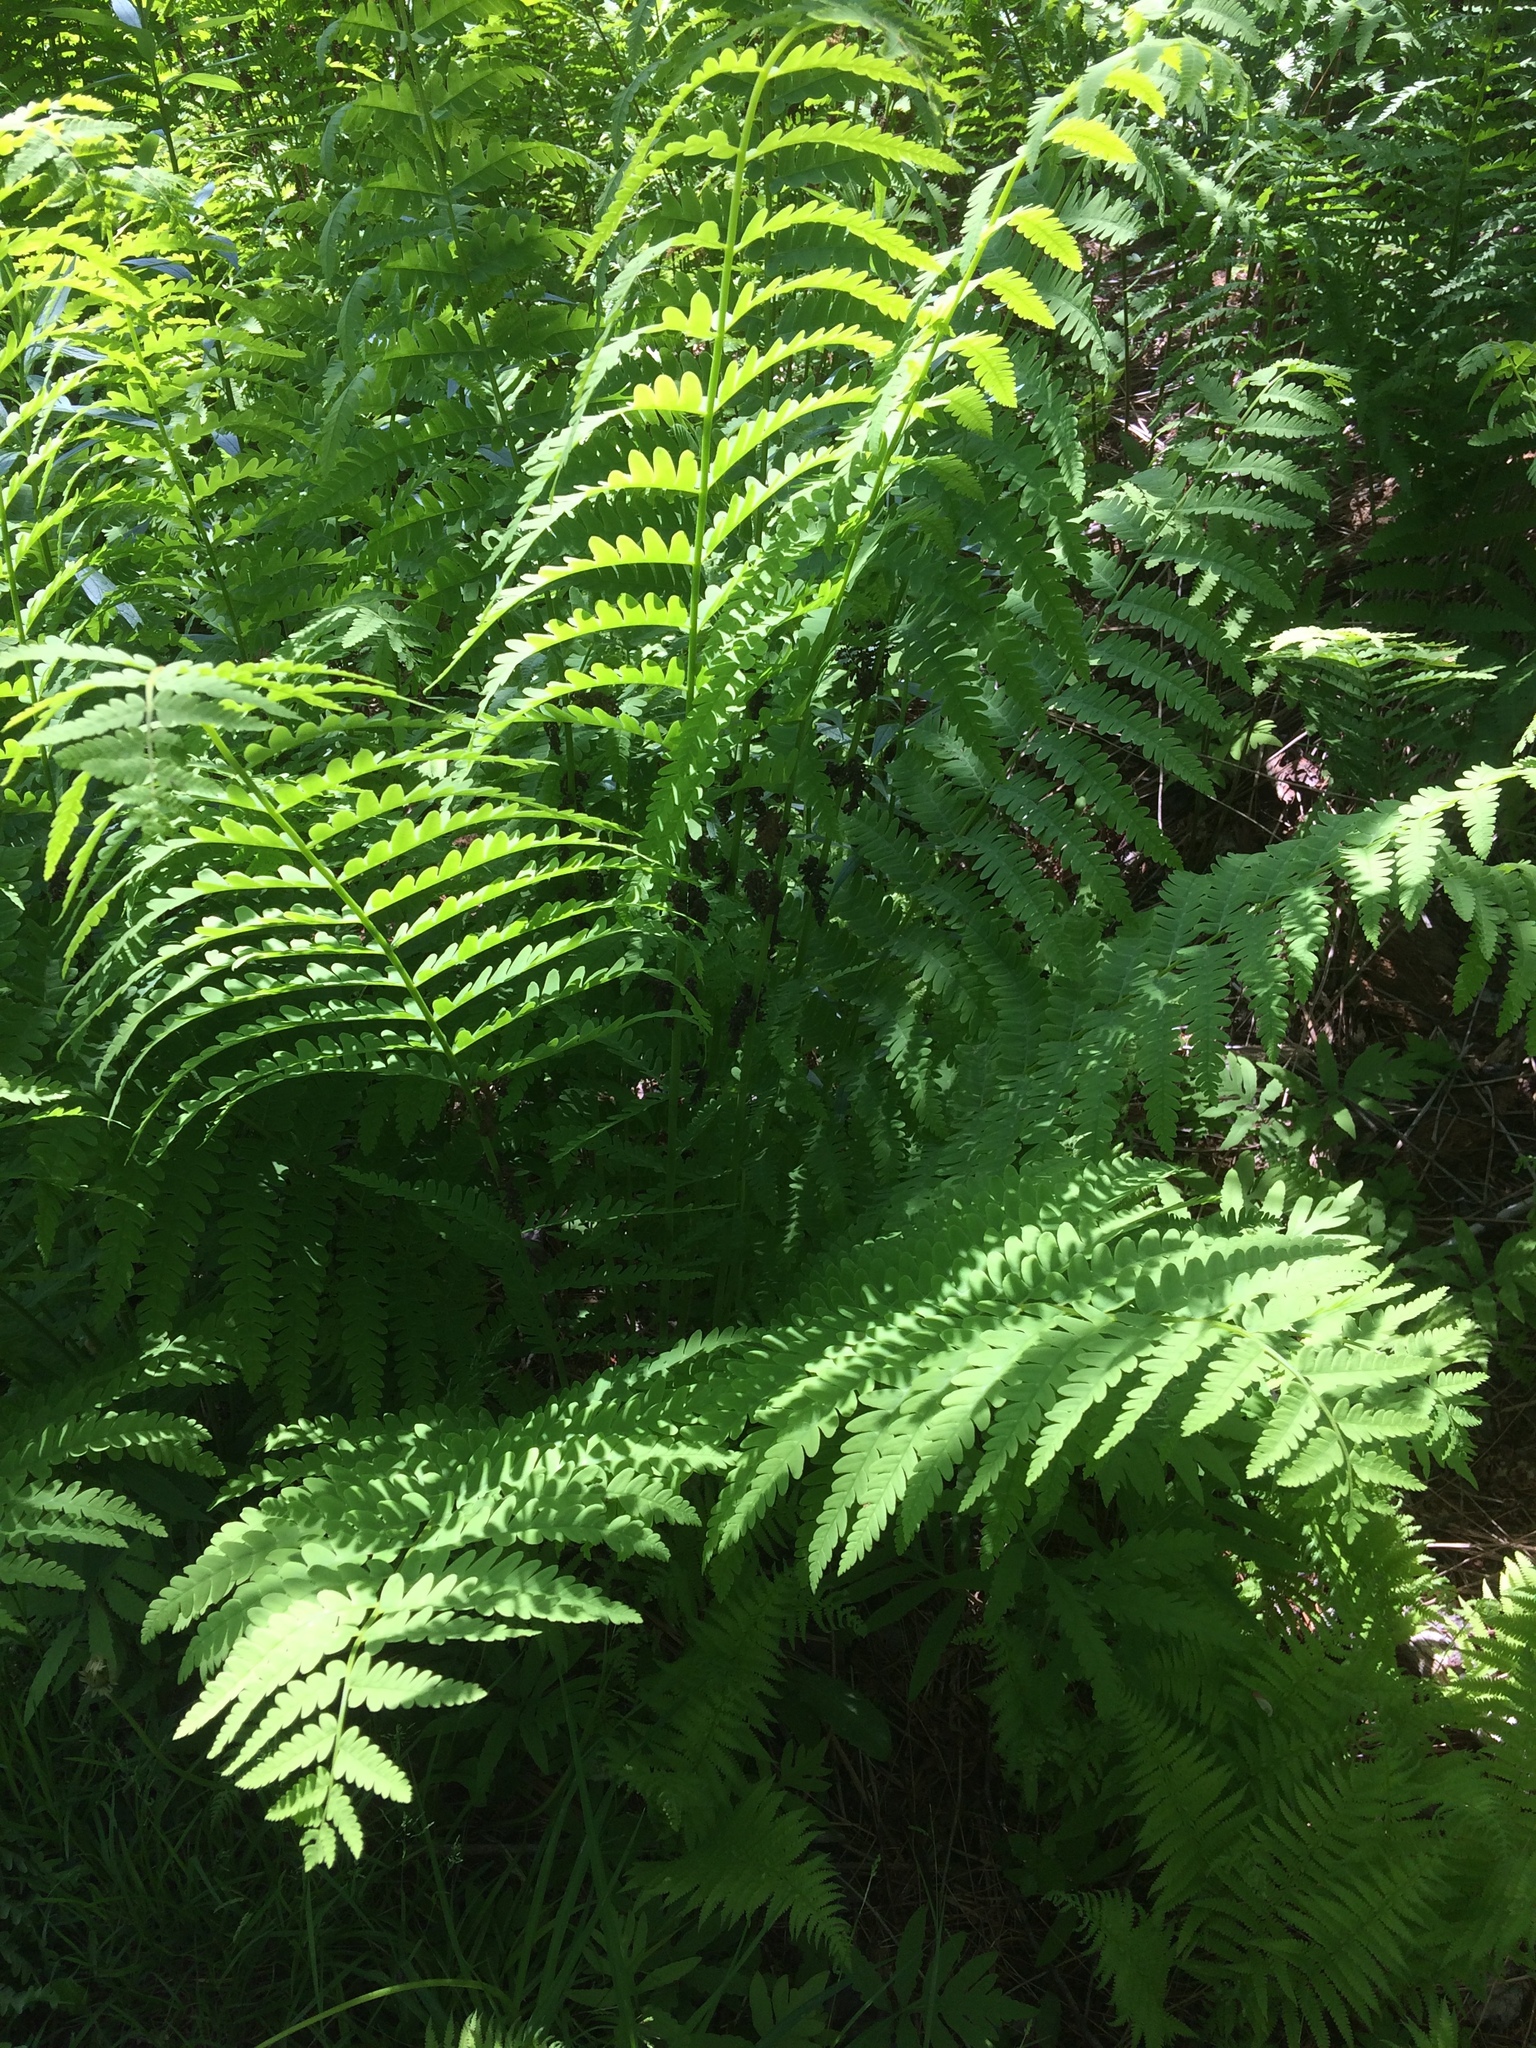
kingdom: Plantae
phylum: Tracheophyta
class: Polypodiopsida
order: Osmundales
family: Osmundaceae
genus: Claytosmunda
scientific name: Claytosmunda claytoniana
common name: Clayton's fern
